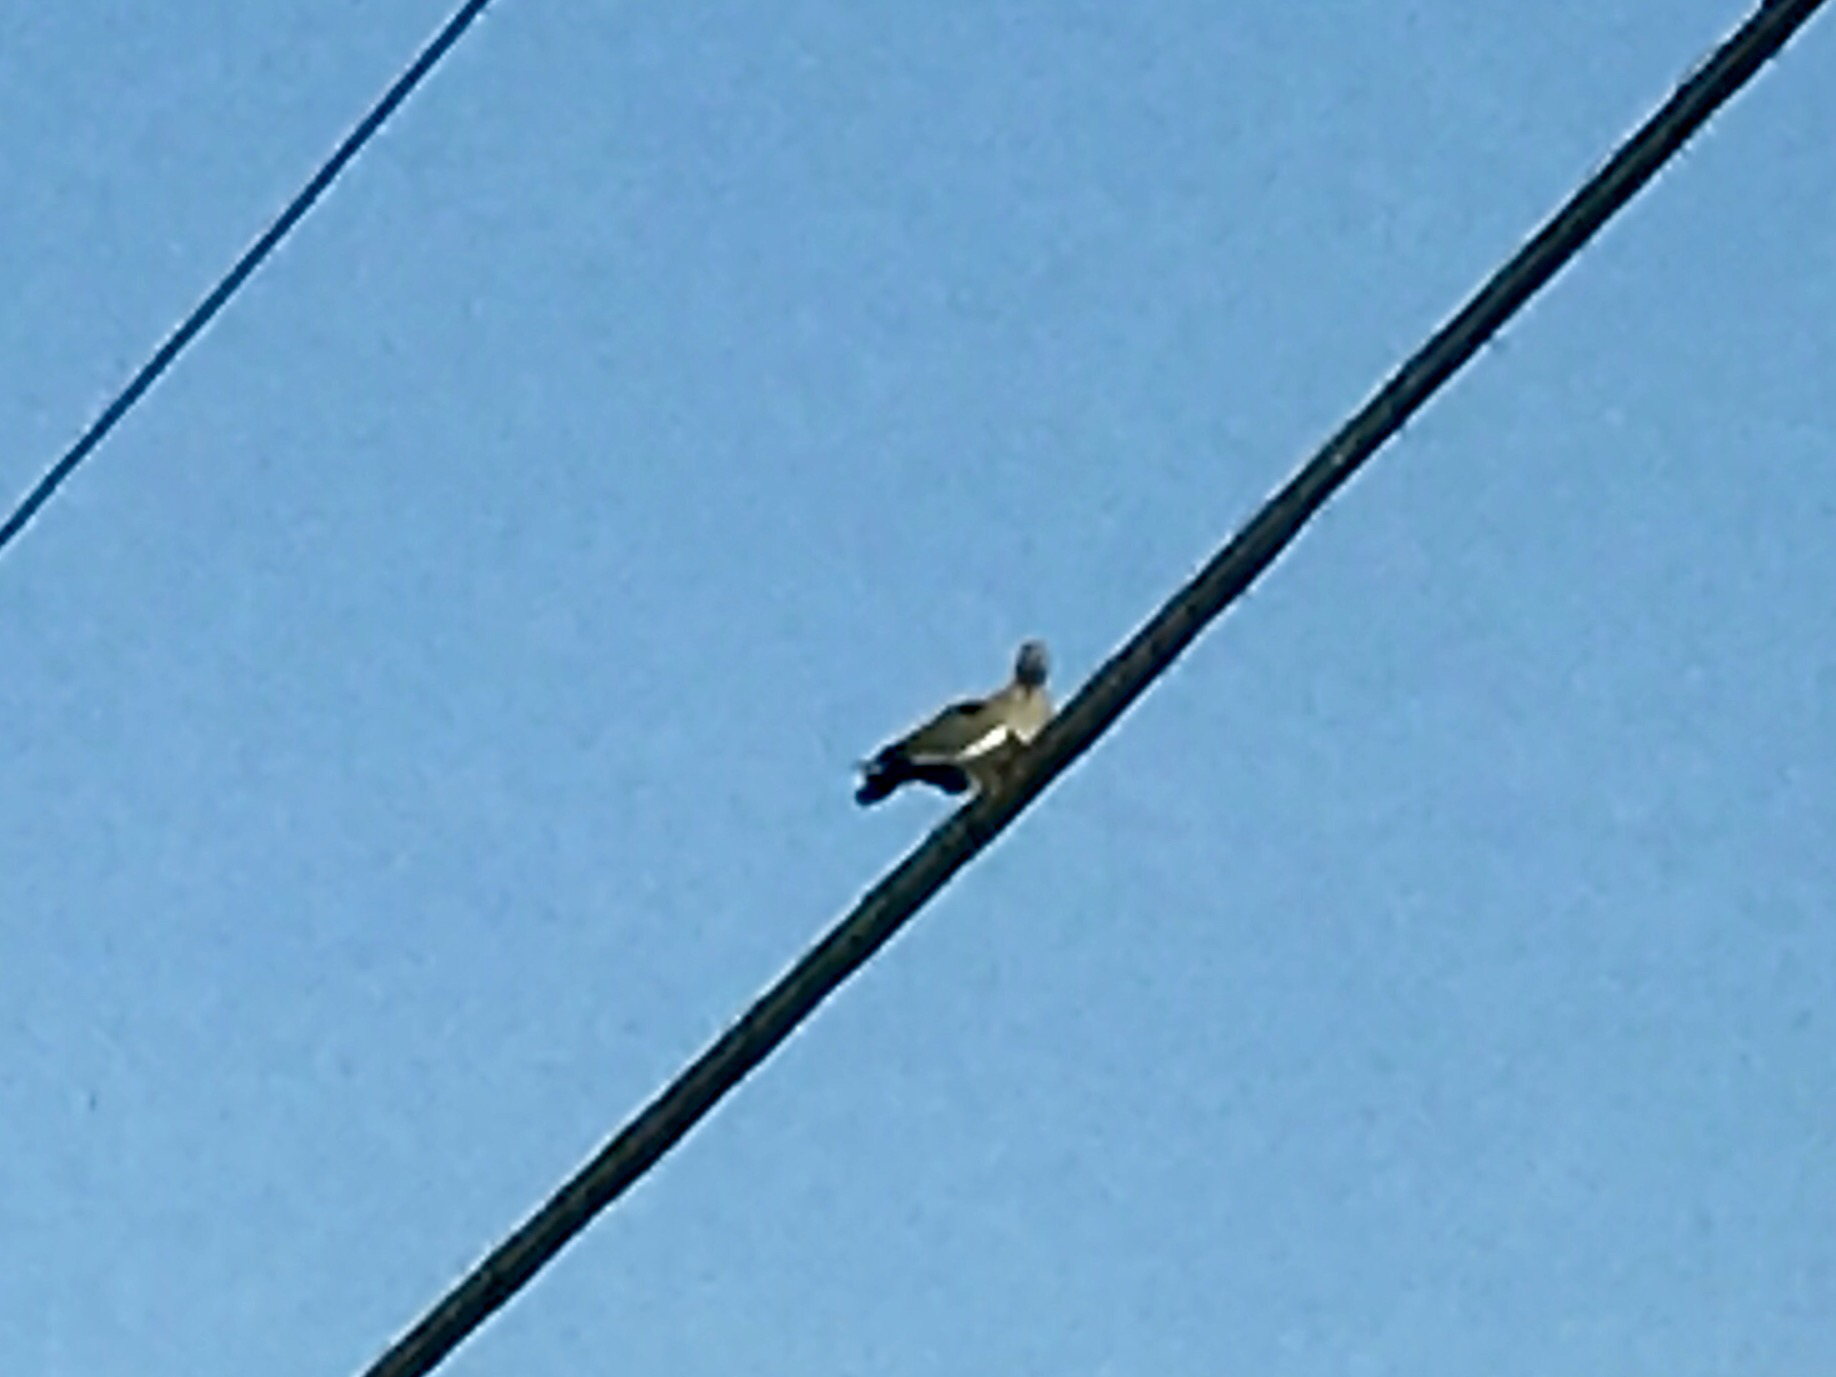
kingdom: Animalia
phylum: Chordata
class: Aves
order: Columbiformes
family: Columbidae
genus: Zenaida
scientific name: Zenaida asiatica
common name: White-winged dove
